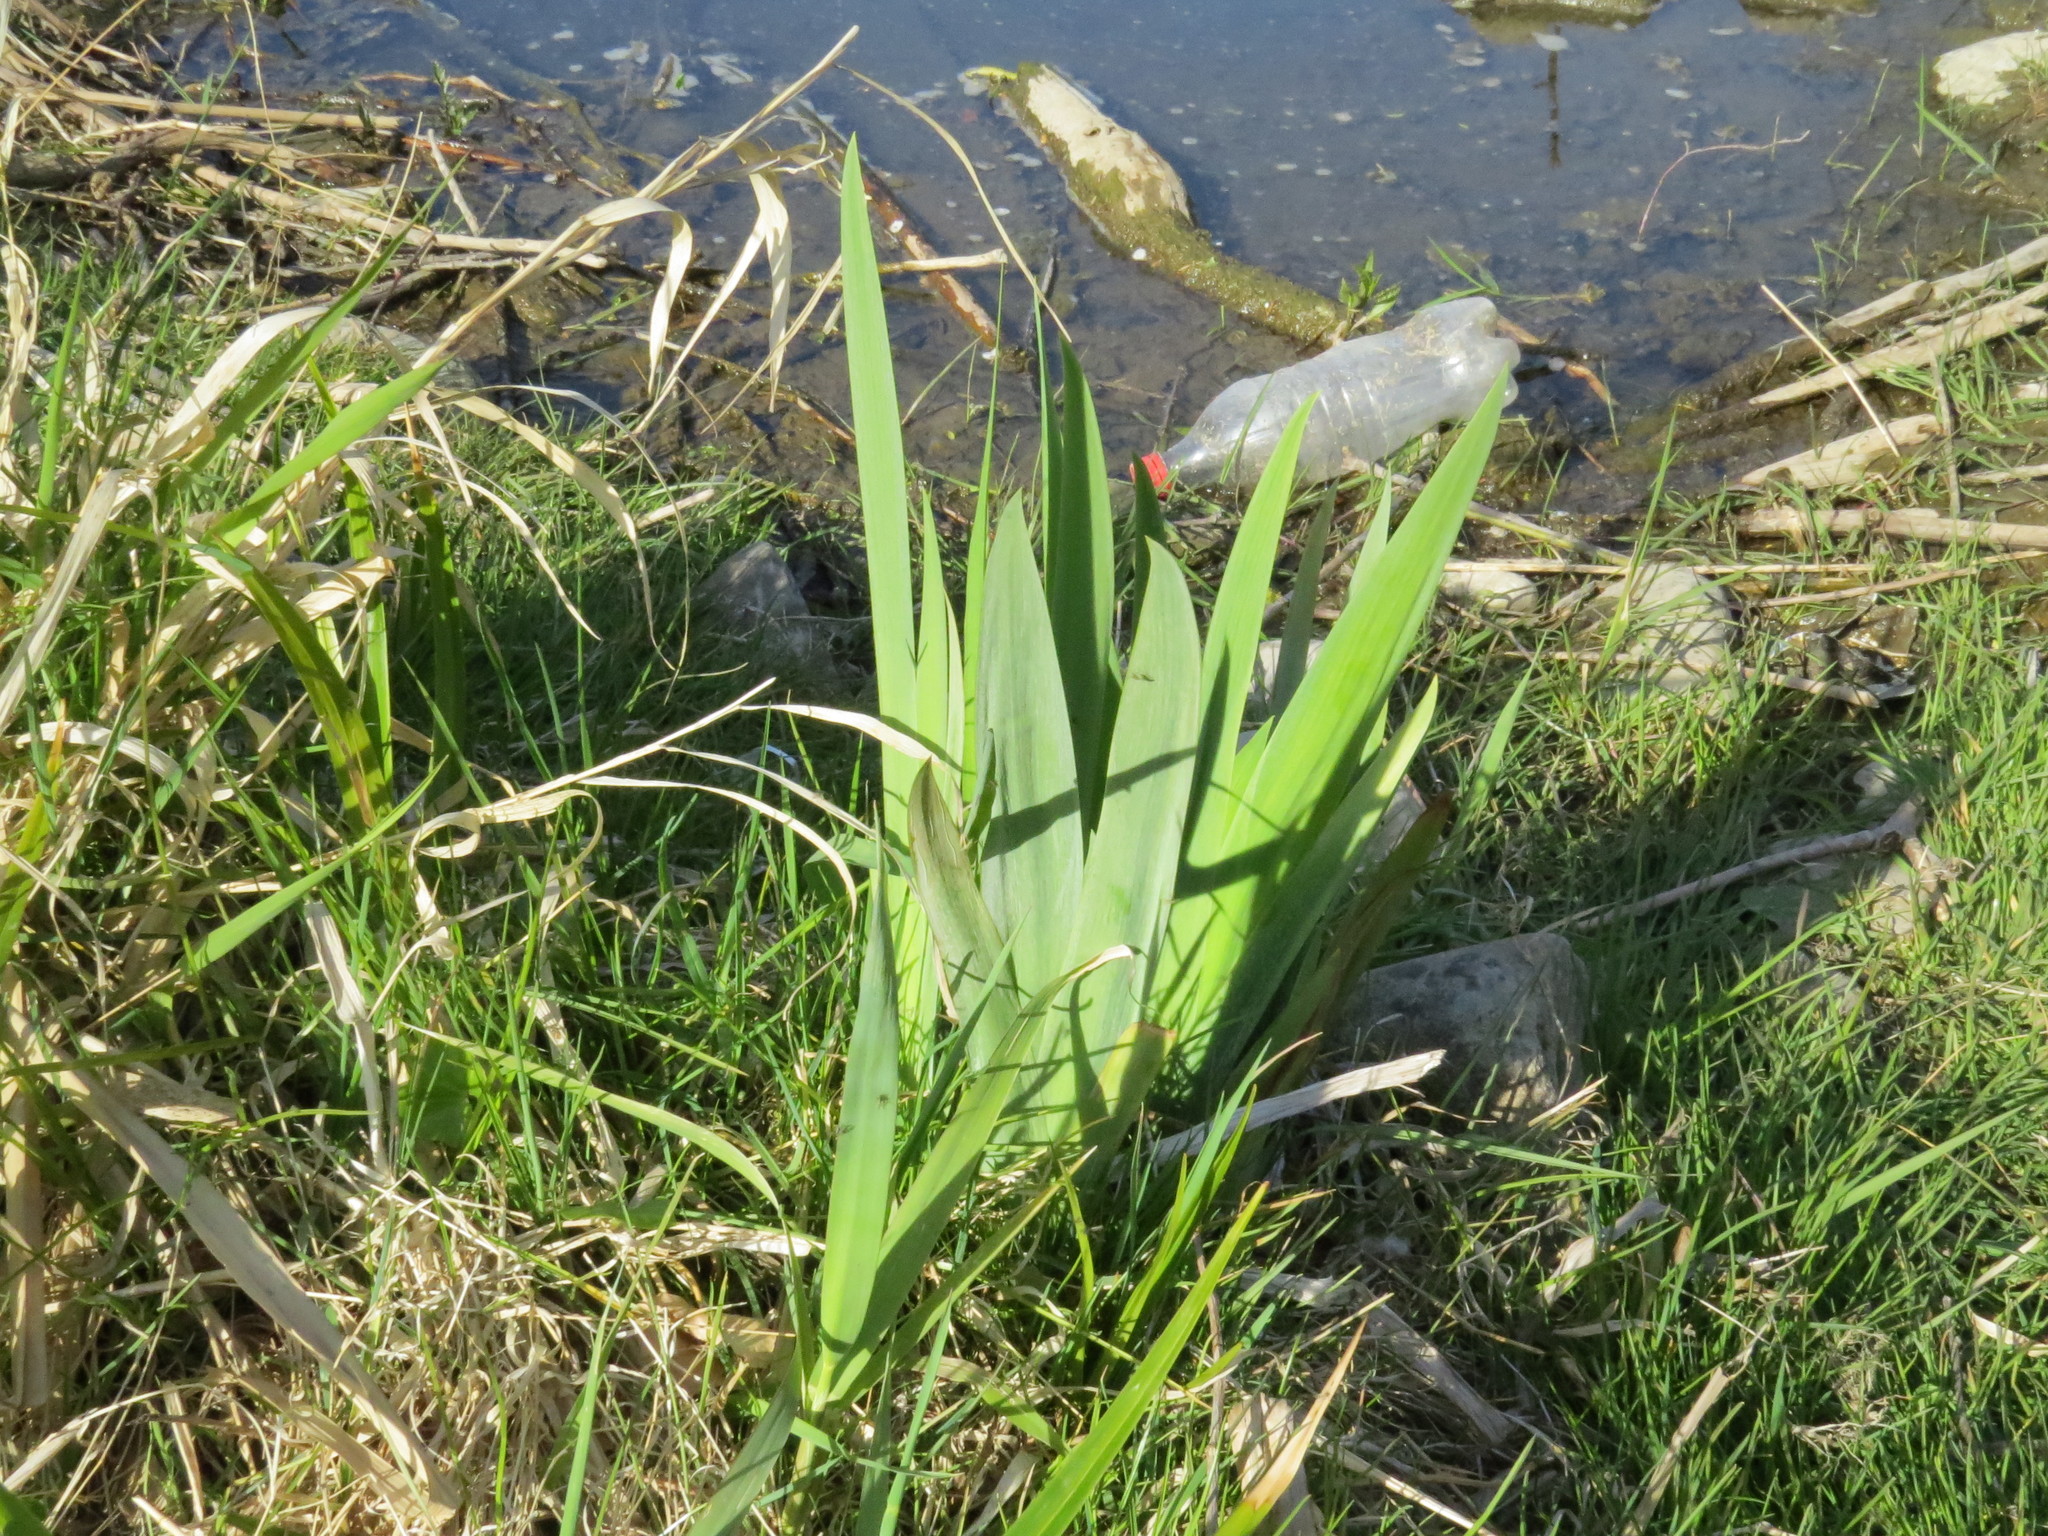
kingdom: Plantae
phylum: Tracheophyta
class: Liliopsida
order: Asparagales
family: Iridaceae
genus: Iris
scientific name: Iris pseudacorus
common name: Yellow flag
